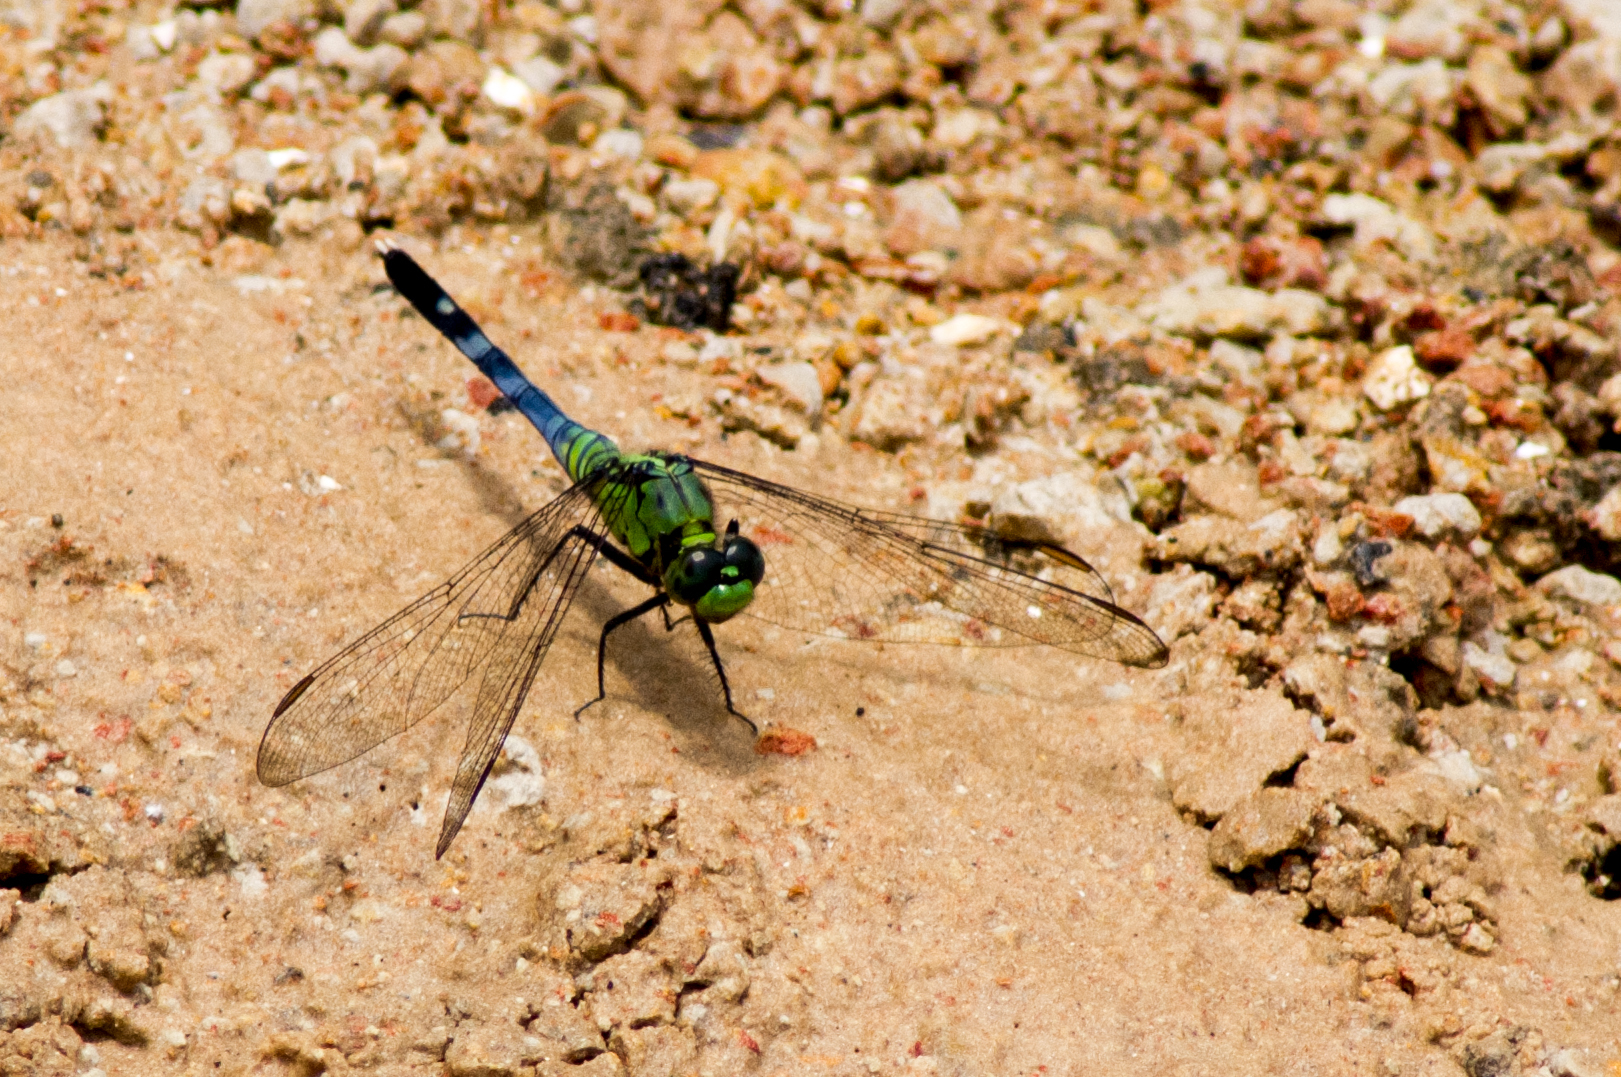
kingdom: Animalia
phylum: Arthropoda
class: Insecta
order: Odonata
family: Libellulidae
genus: Erythemis
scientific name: Erythemis simplicicollis
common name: Eastern pondhawk
